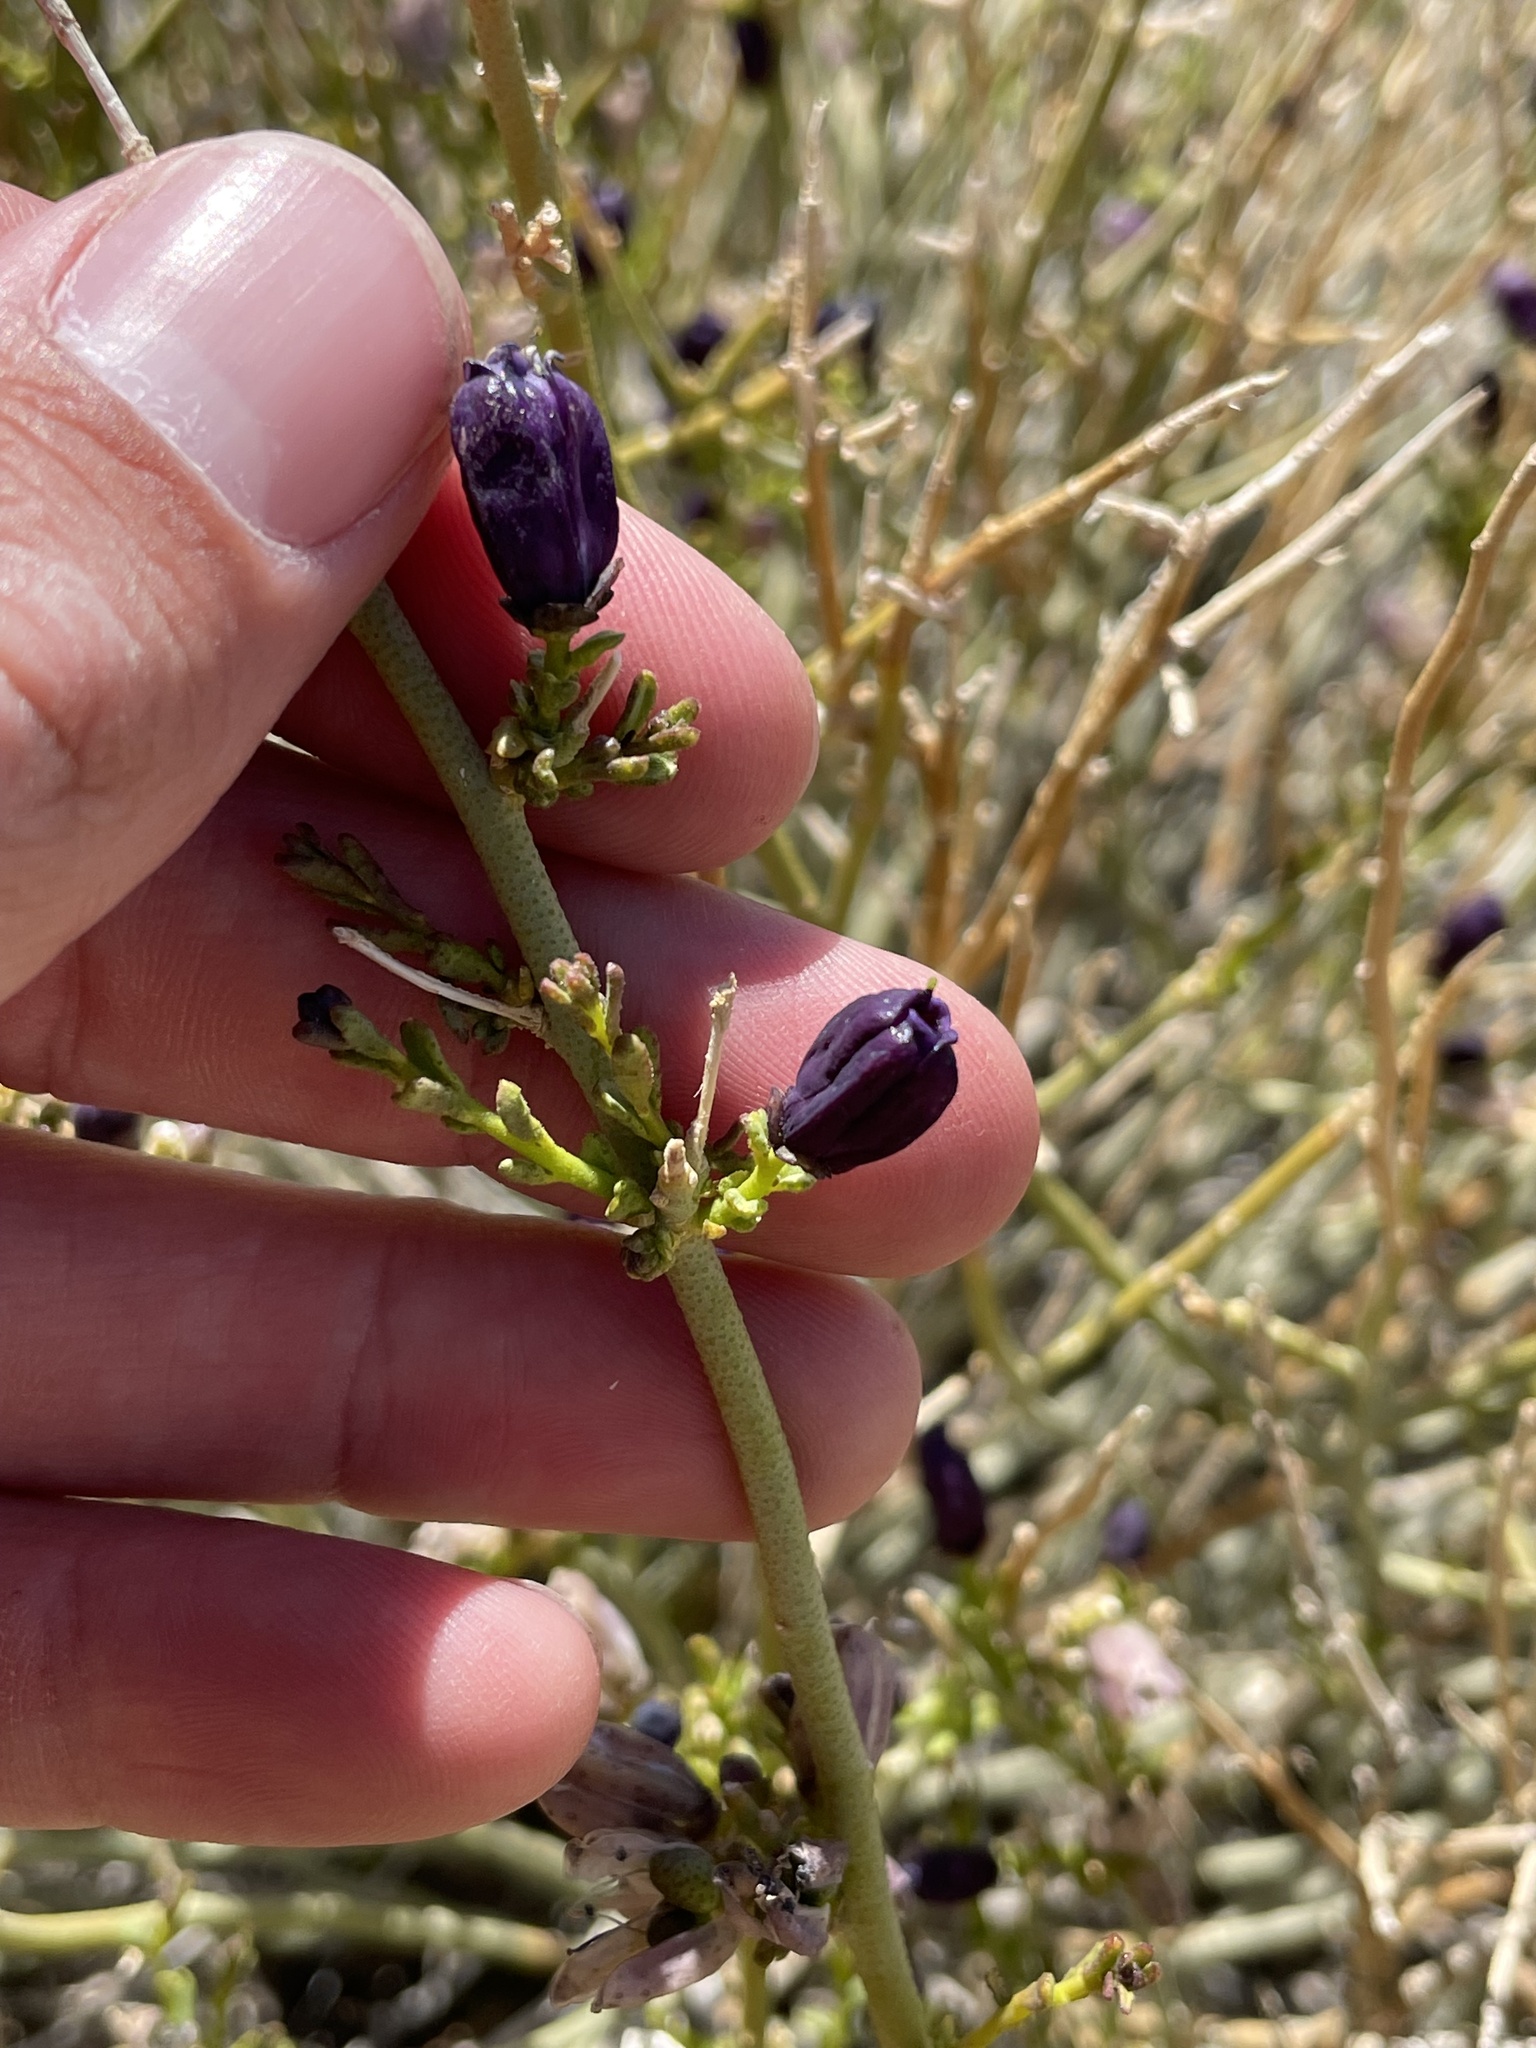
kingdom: Plantae
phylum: Tracheophyta
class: Magnoliopsida
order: Sapindales
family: Rutaceae
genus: Thamnosma
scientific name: Thamnosma montana
